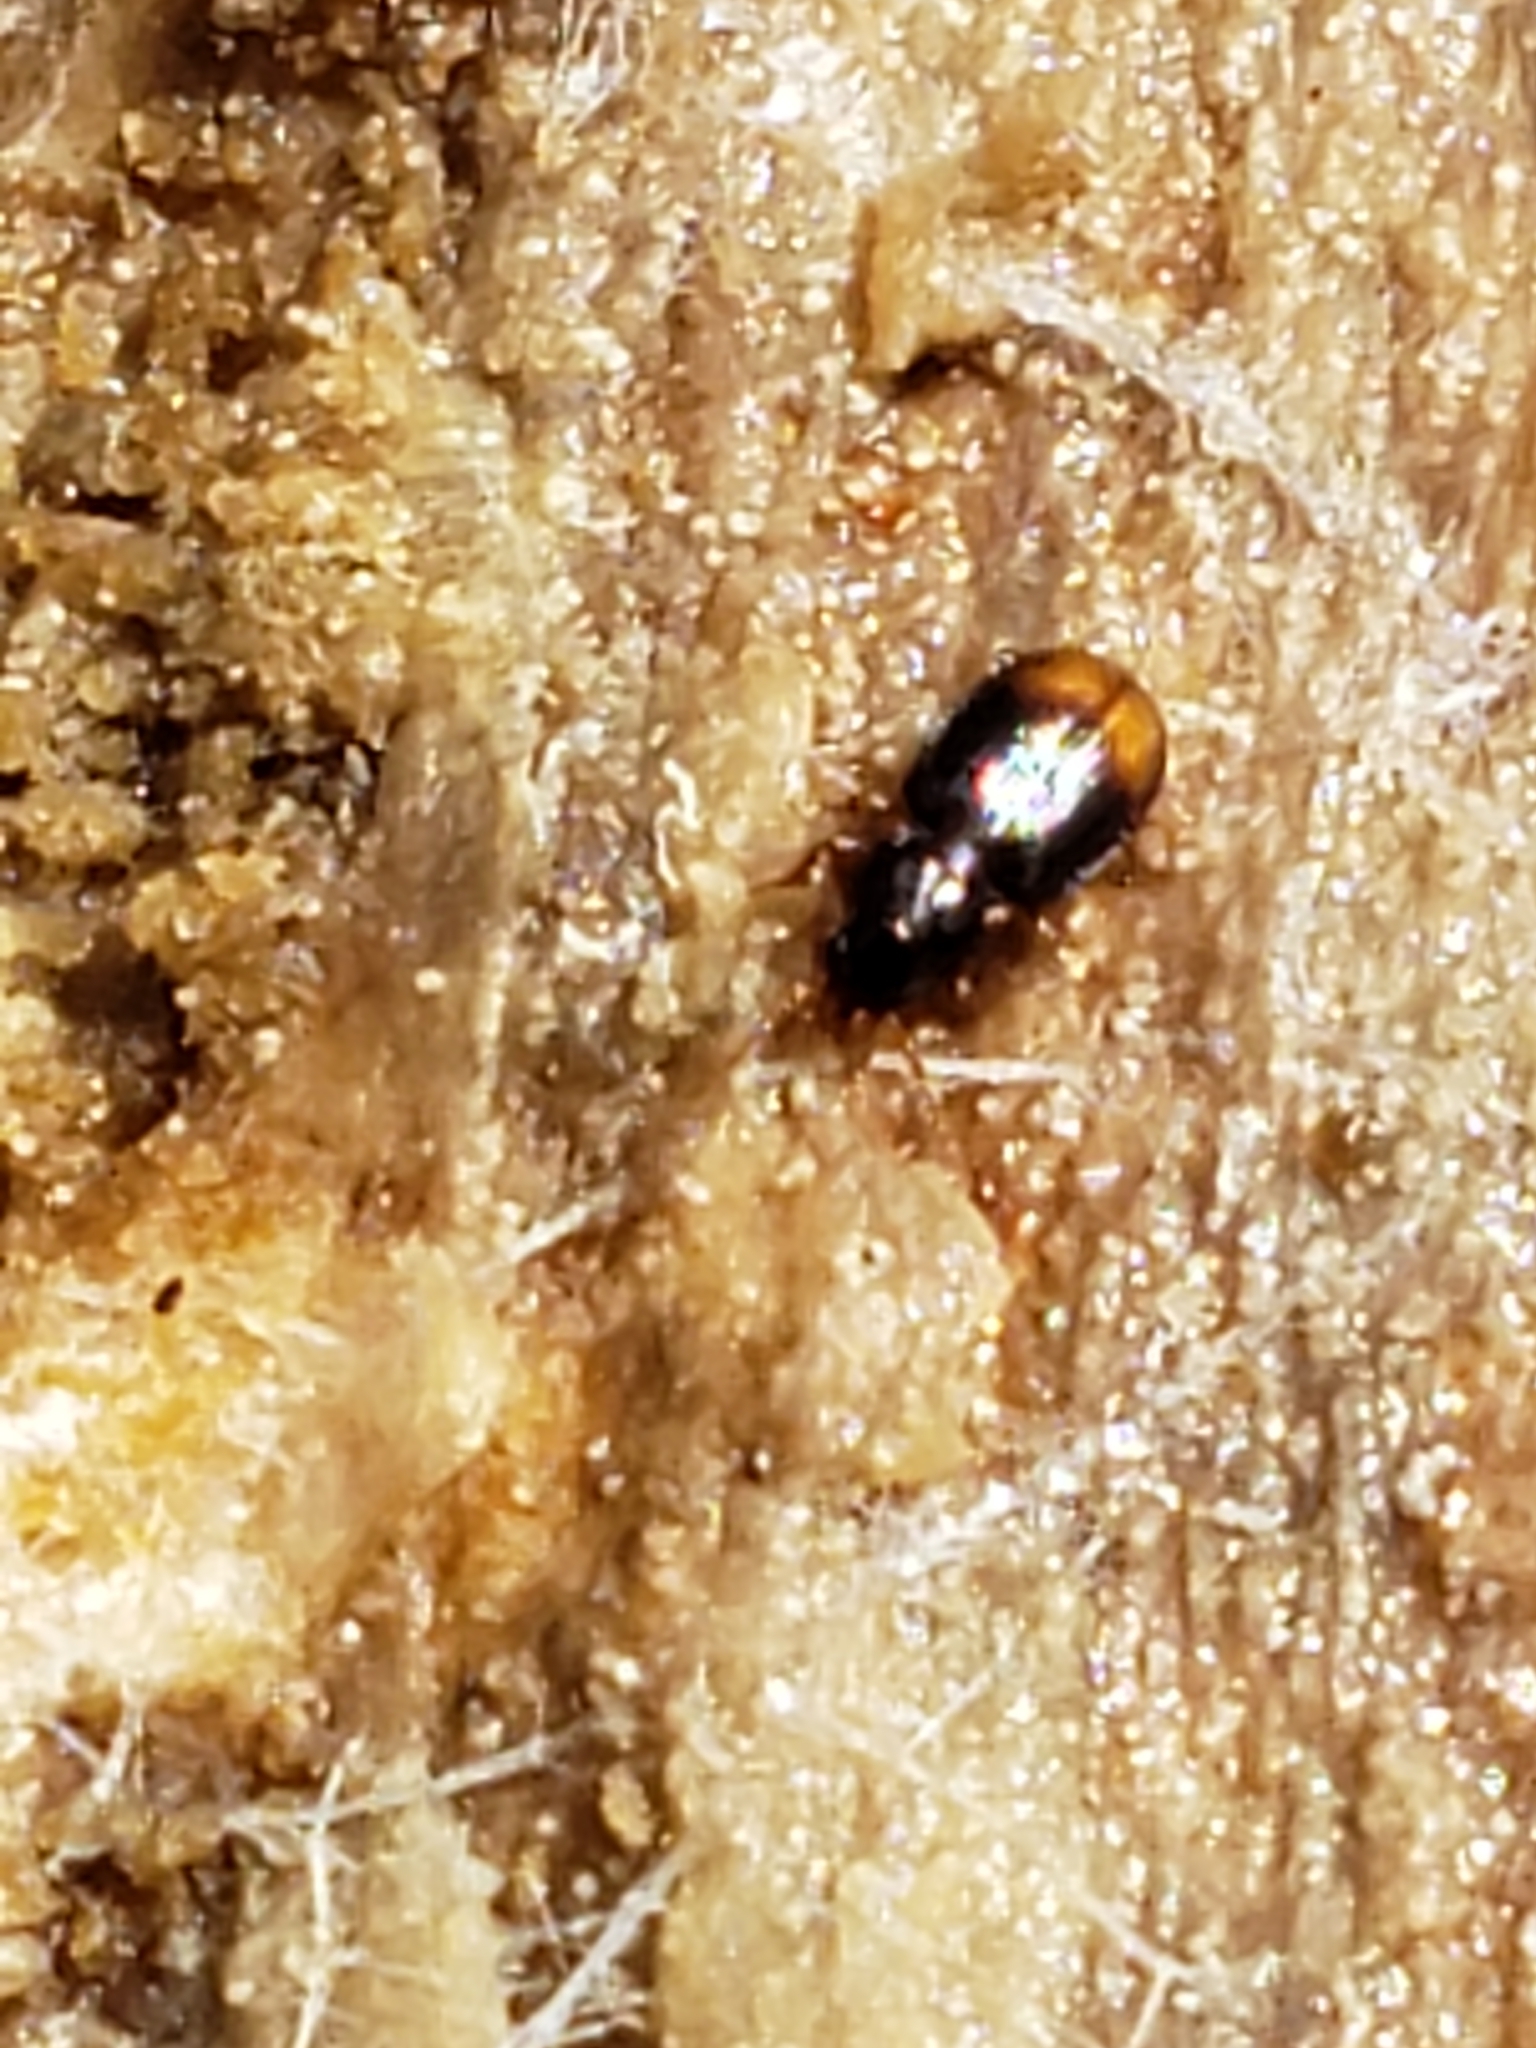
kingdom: Animalia
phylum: Arthropoda
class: Insecta
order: Coleoptera
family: Carabidae
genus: Mioptachys
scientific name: Mioptachys flavicauda
